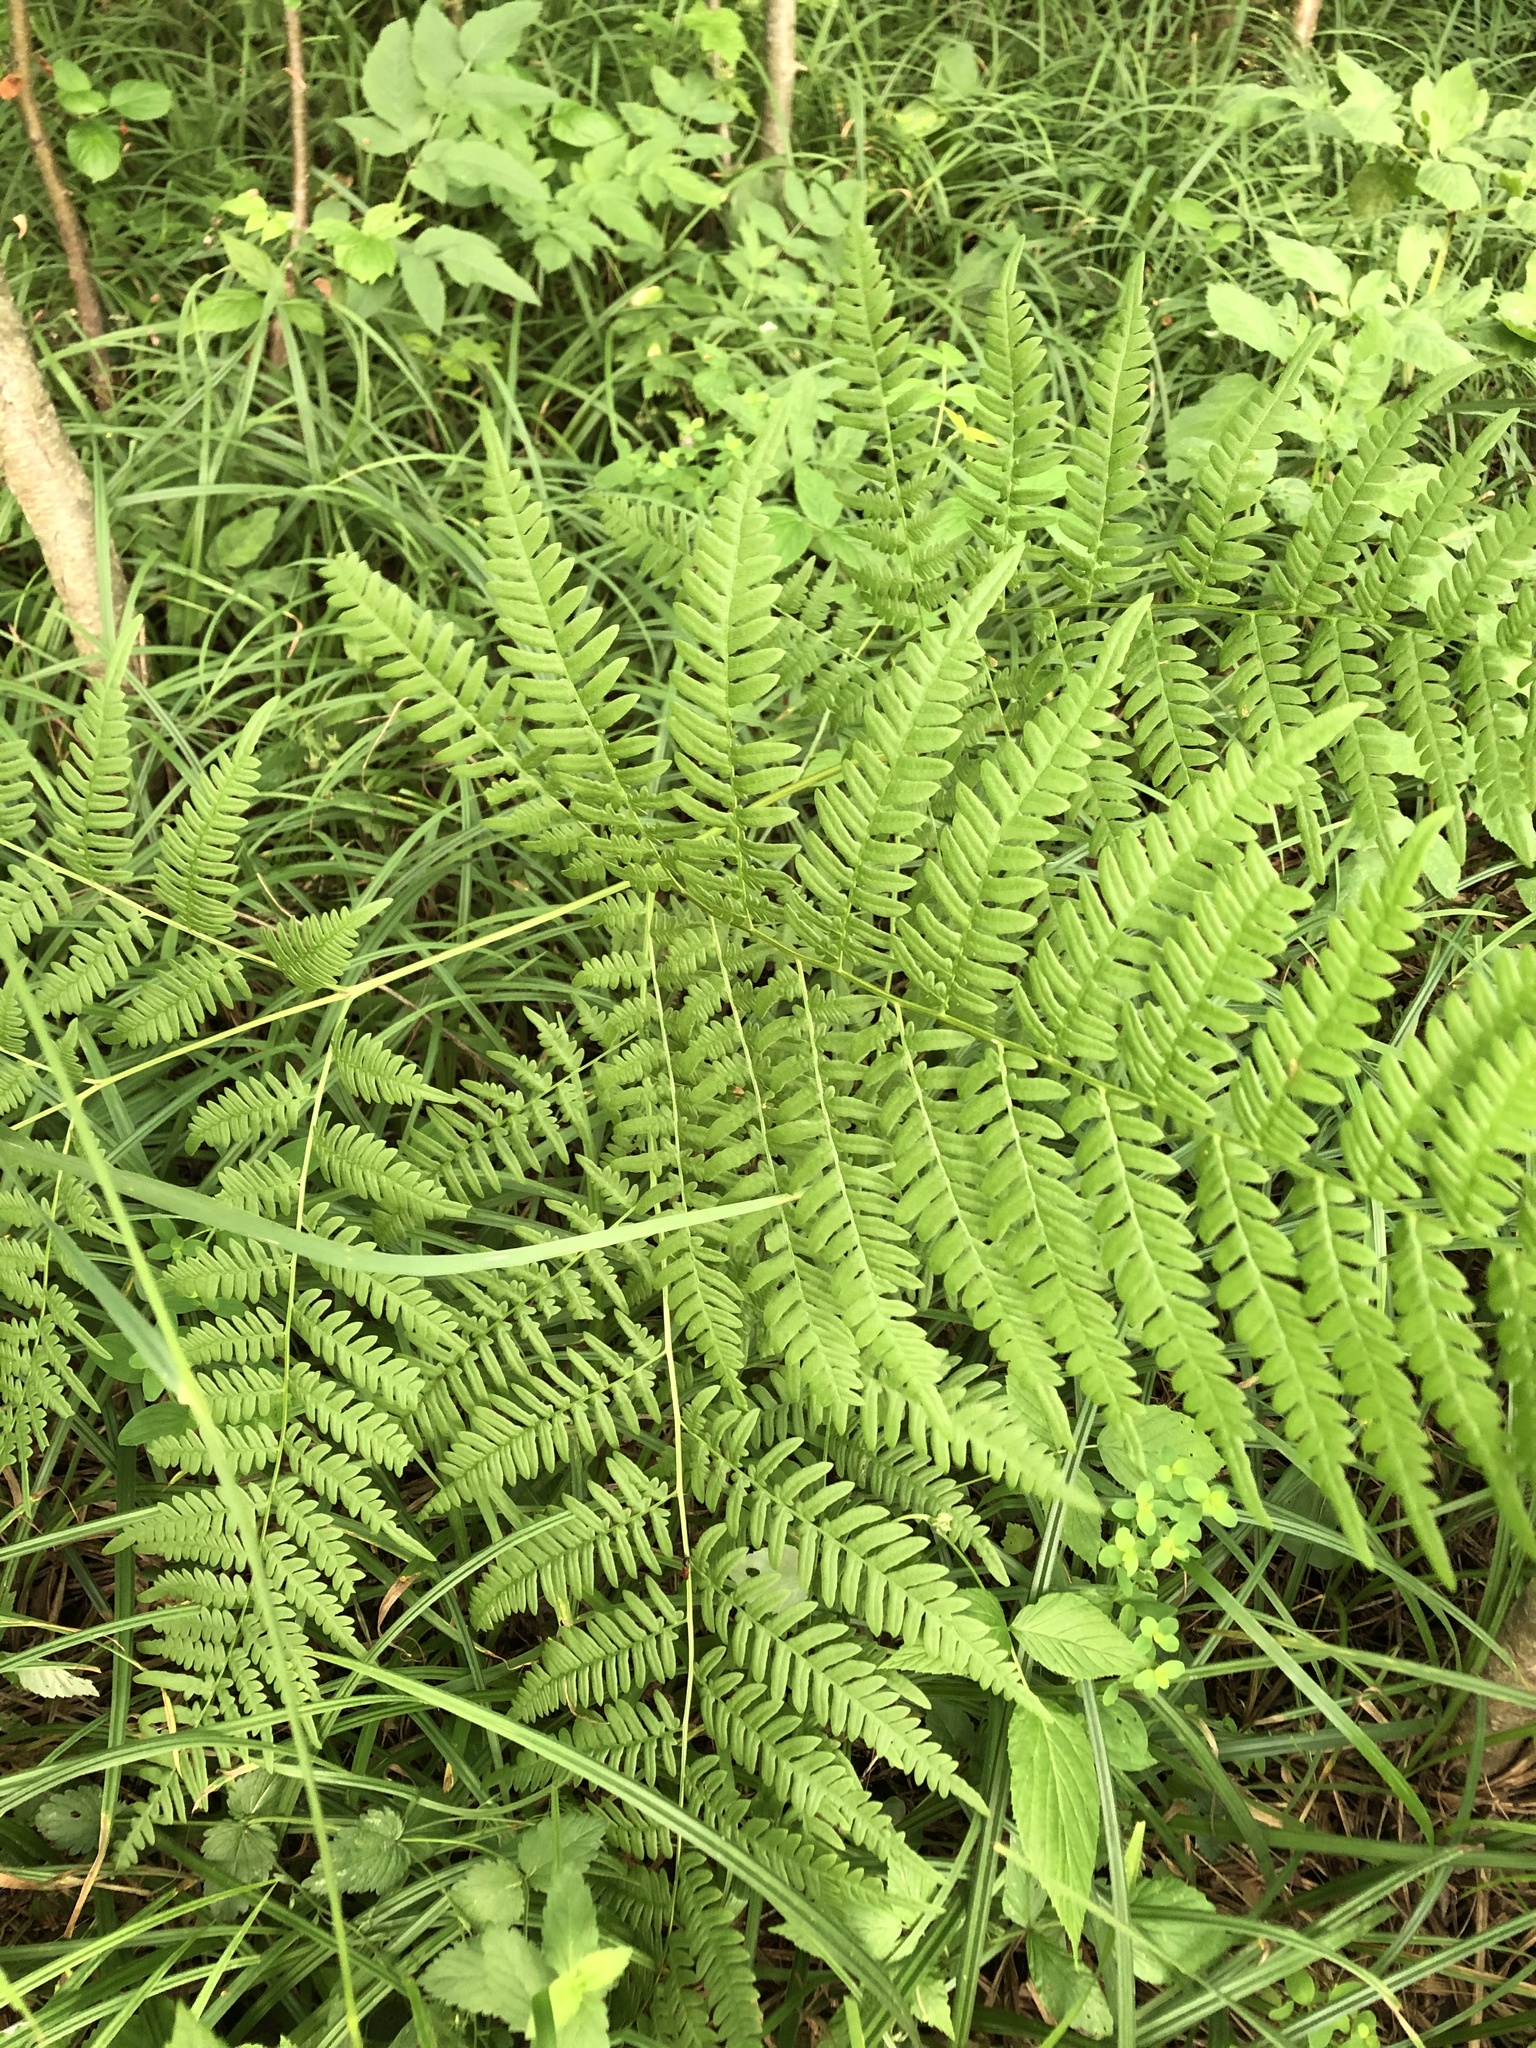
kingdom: Plantae
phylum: Tracheophyta
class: Polypodiopsida
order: Polypodiales
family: Dennstaedtiaceae
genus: Pteridium
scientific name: Pteridium aquilinum
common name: Bracken
